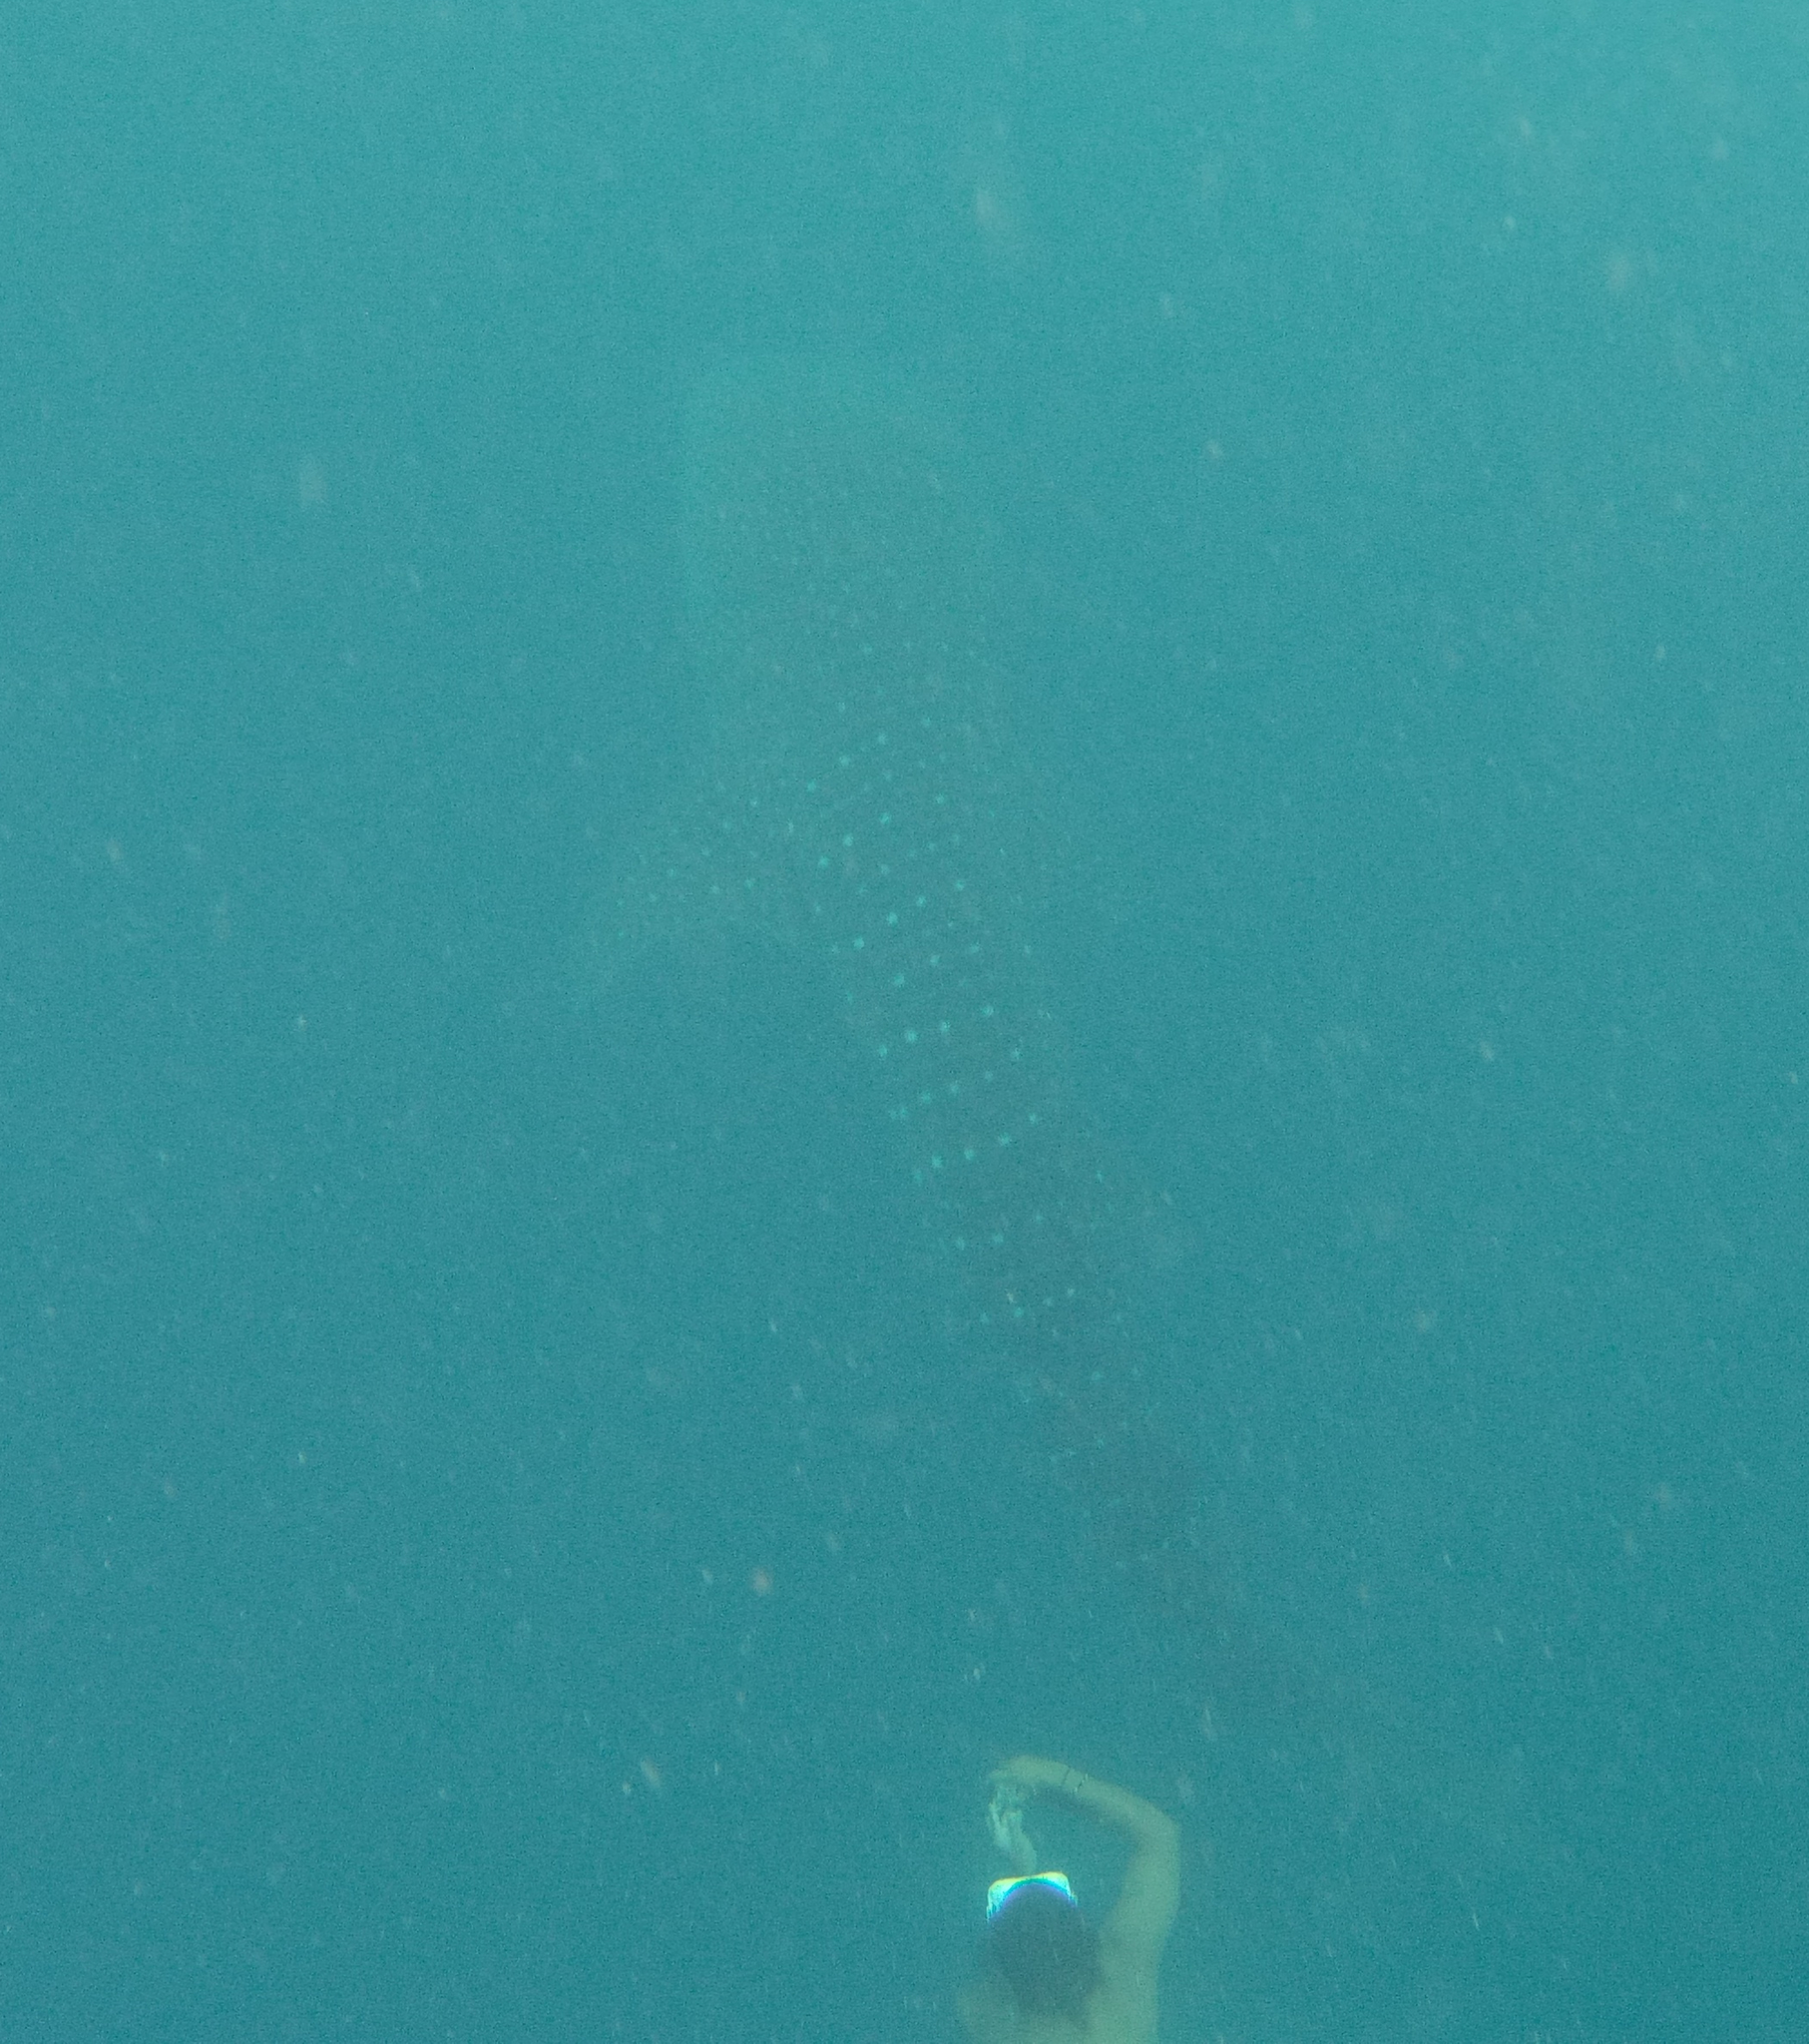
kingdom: Animalia
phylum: Chordata
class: Elasmobranchii
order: Orectolobiformes
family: Rhincodontidae
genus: Rhincodon
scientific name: Rhincodon typus
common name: Whale shark
